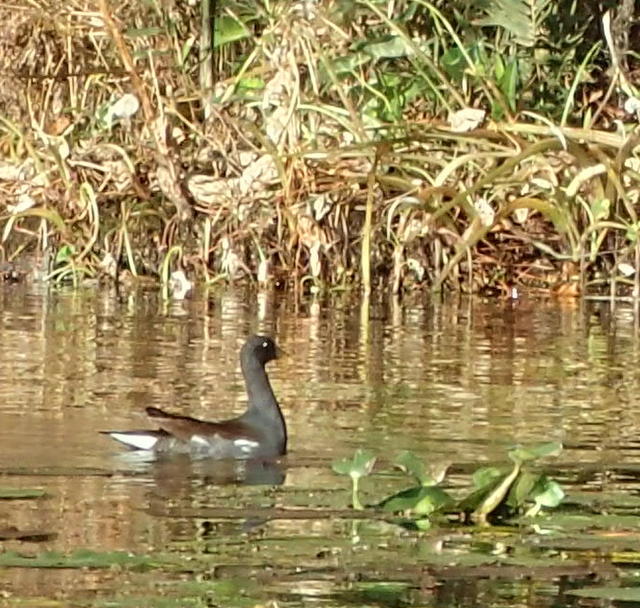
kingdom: Animalia
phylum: Chordata
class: Aves
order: Gruiformes
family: Rallidae
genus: Gallinula
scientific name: Gallinula chloropus
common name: Common moorhen
